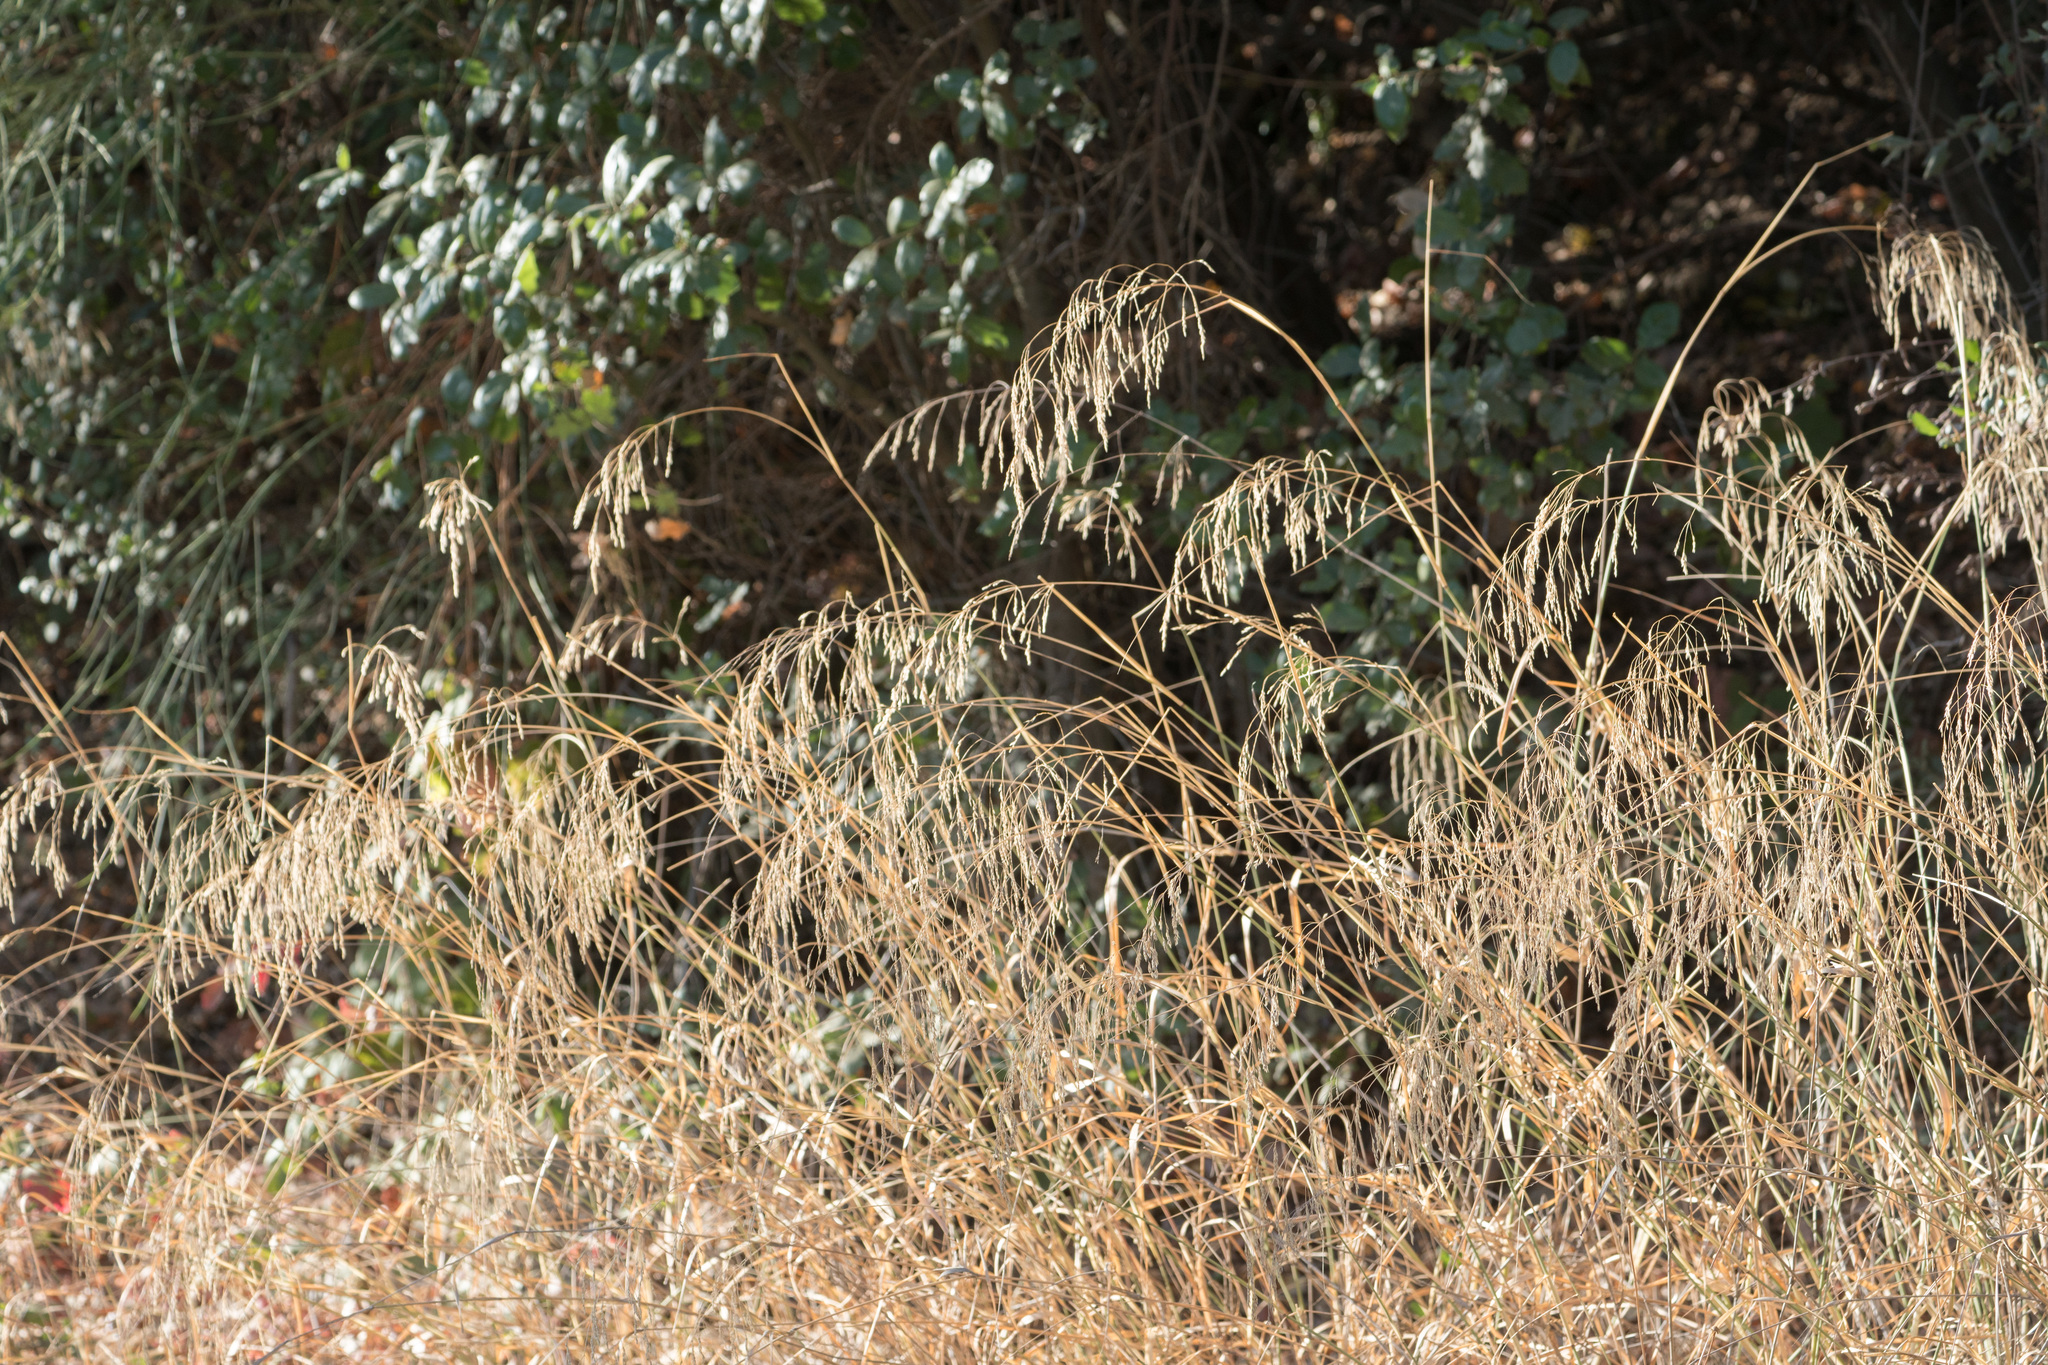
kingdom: Plantae
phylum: Tracheophyta
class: Liliopsida
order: Poales
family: Poaceae
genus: Oloptum
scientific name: Oloptum miliaceum
